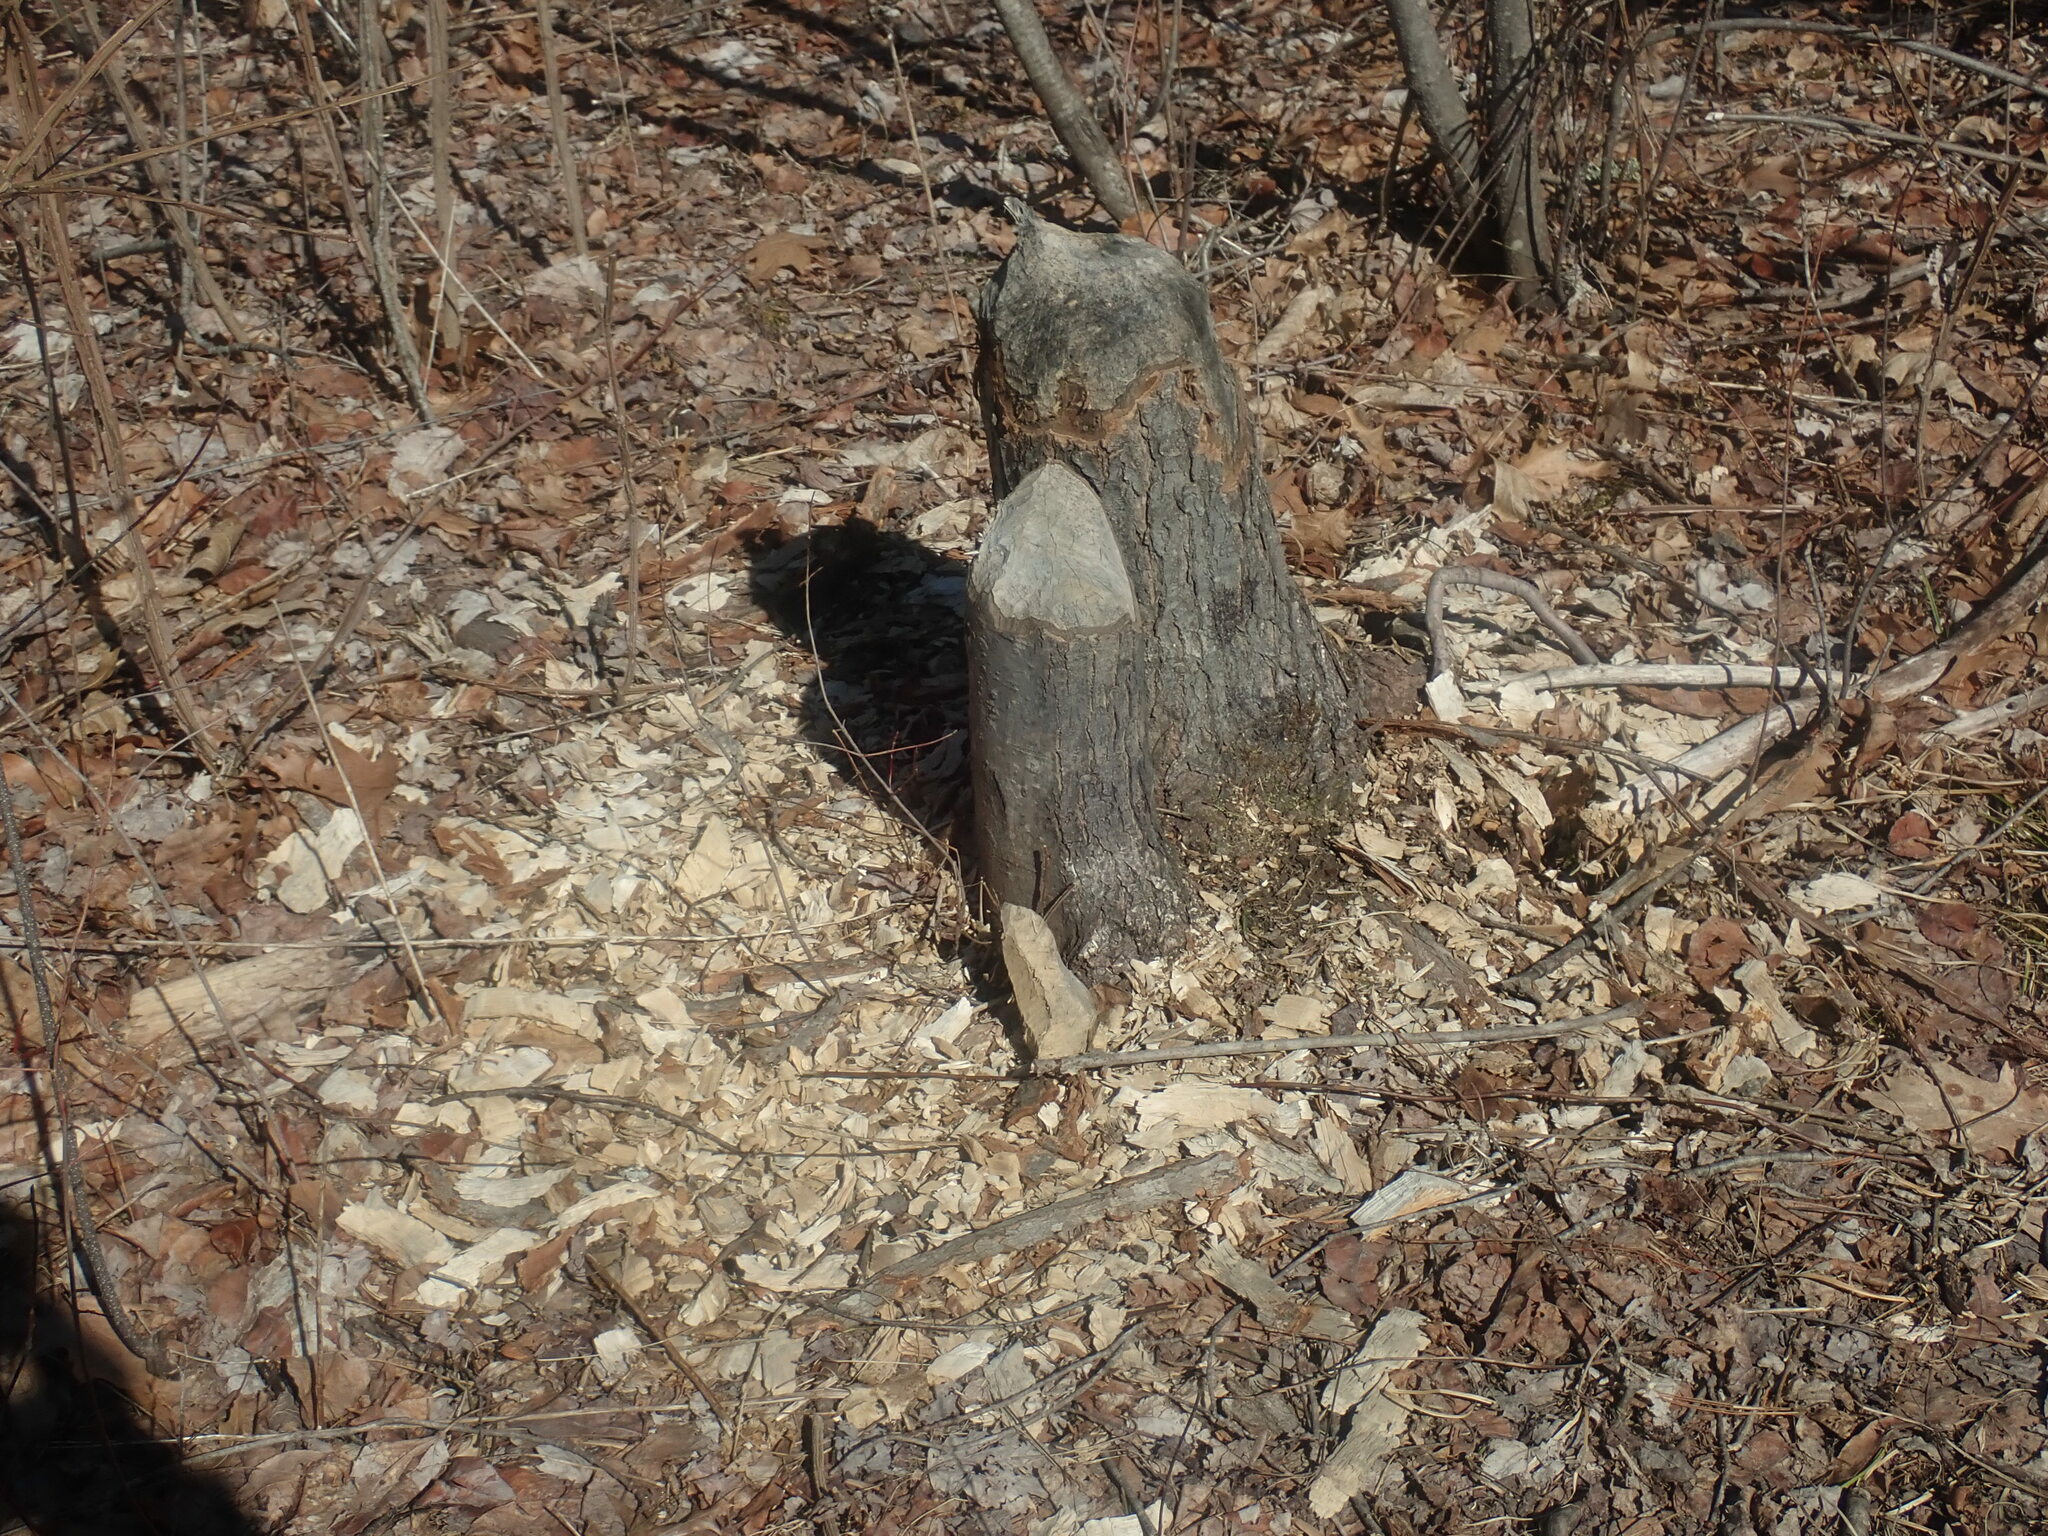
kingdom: Animalia
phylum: Chordata
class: Mammalia
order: Rodentia
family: Castoridae
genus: Castor
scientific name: Castor canadensis
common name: American beaver
